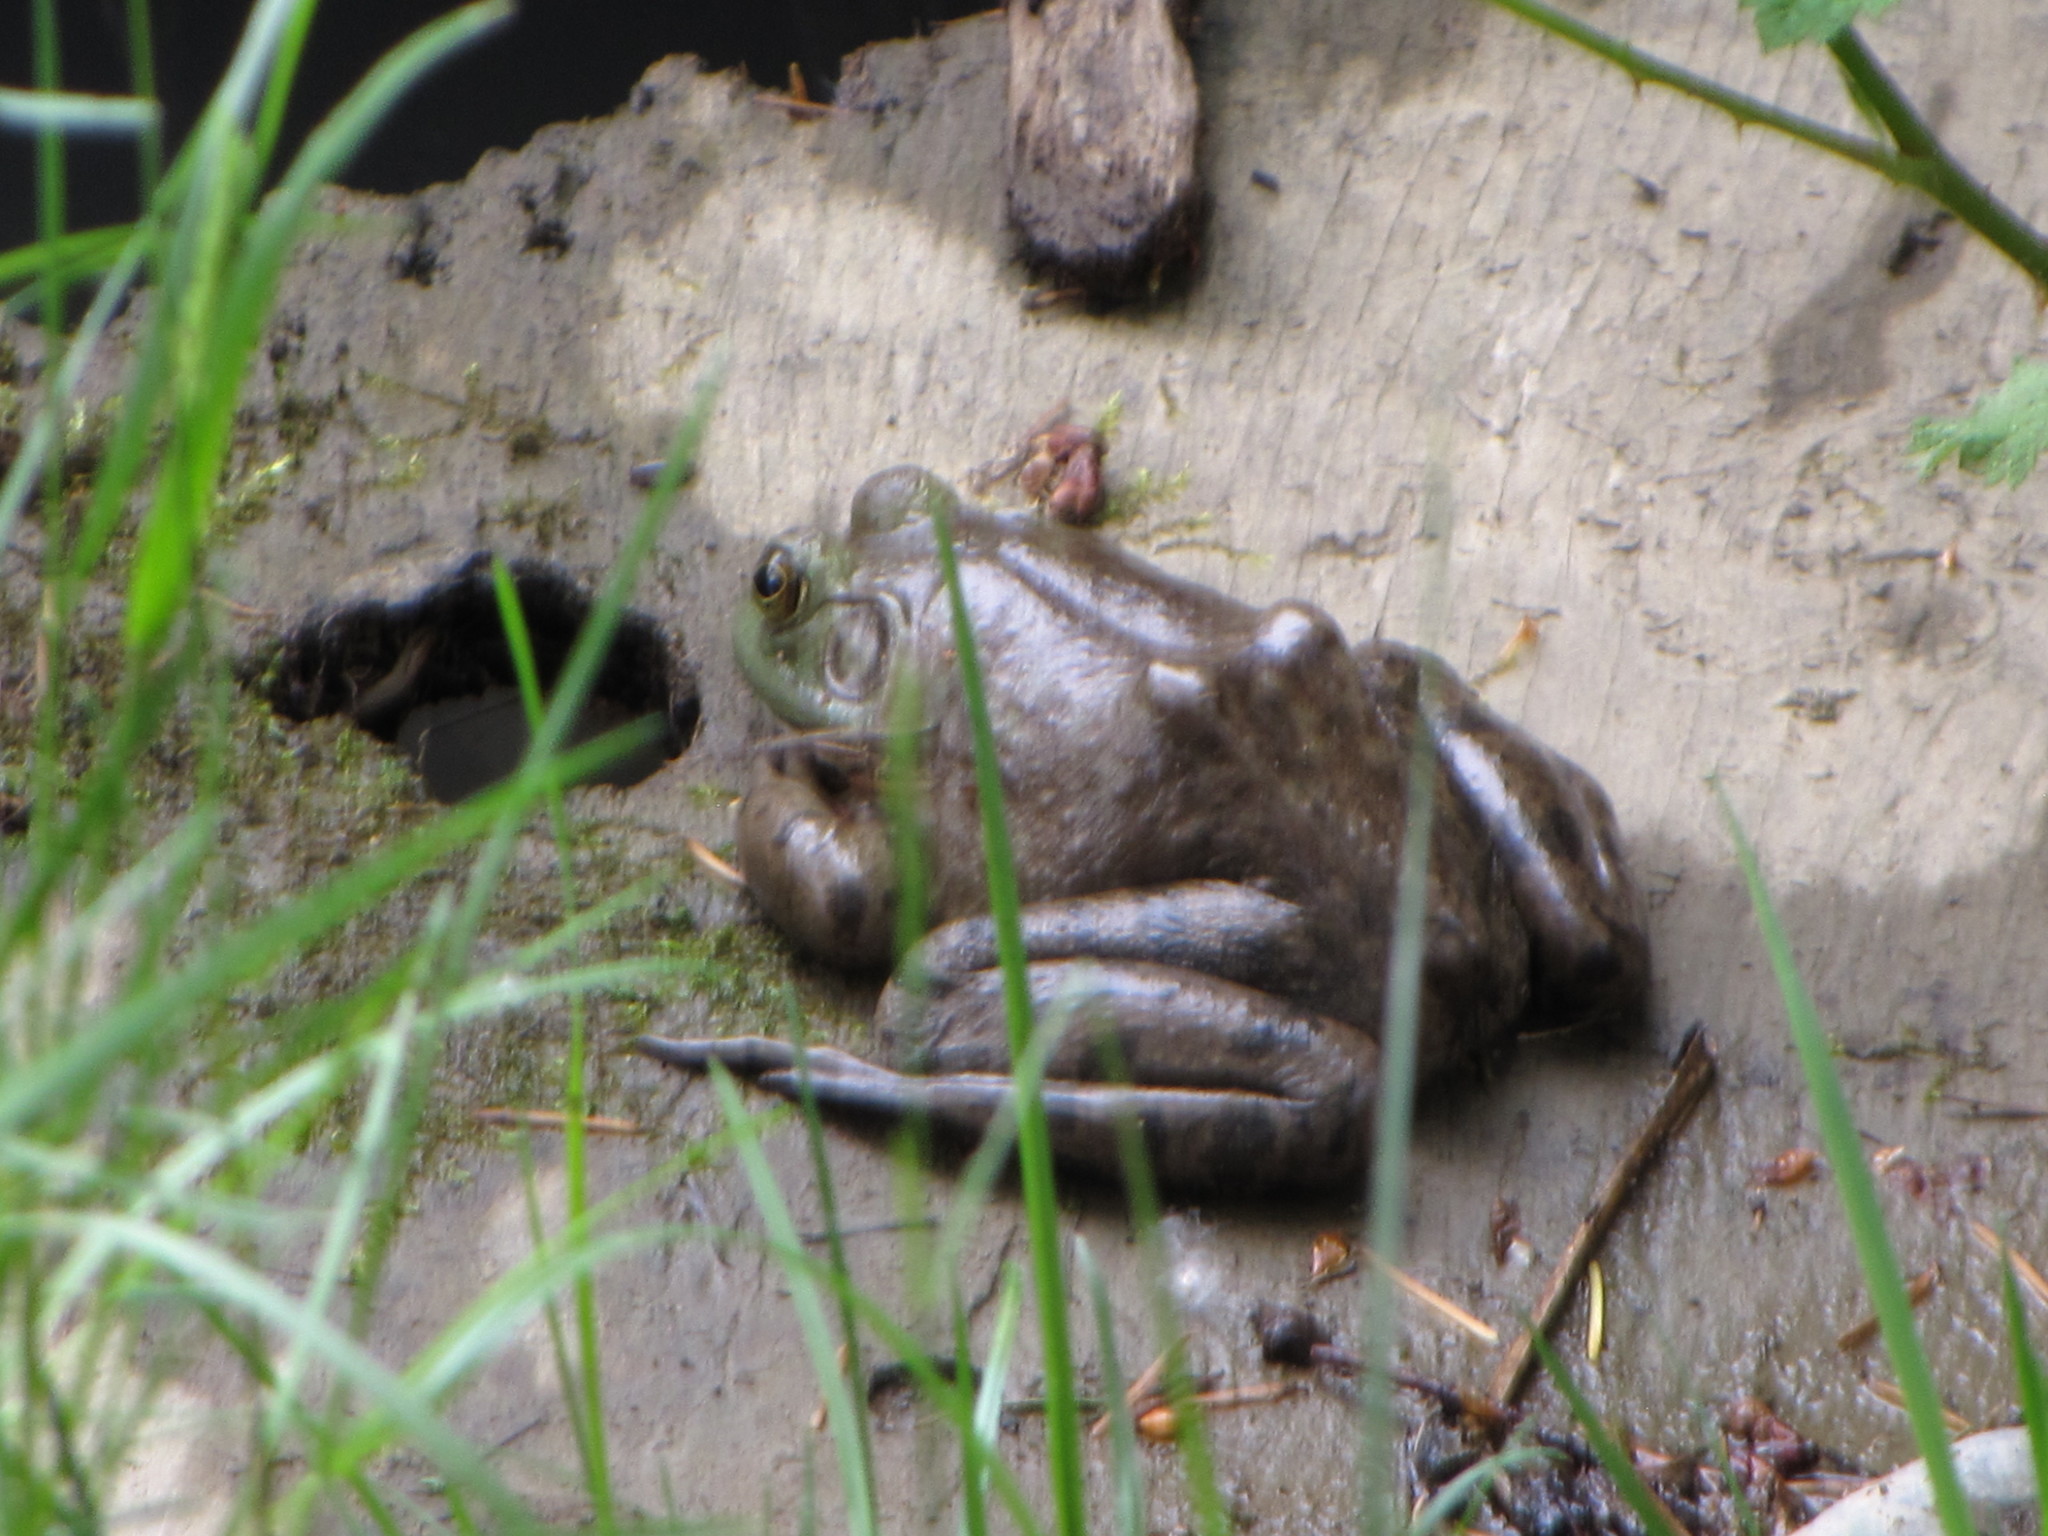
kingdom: Animalia
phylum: Chordata
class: Amphibia
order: Anura
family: Ranidae
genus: Lithobates
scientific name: Lithobates catesbeianus
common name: American bullfrog
